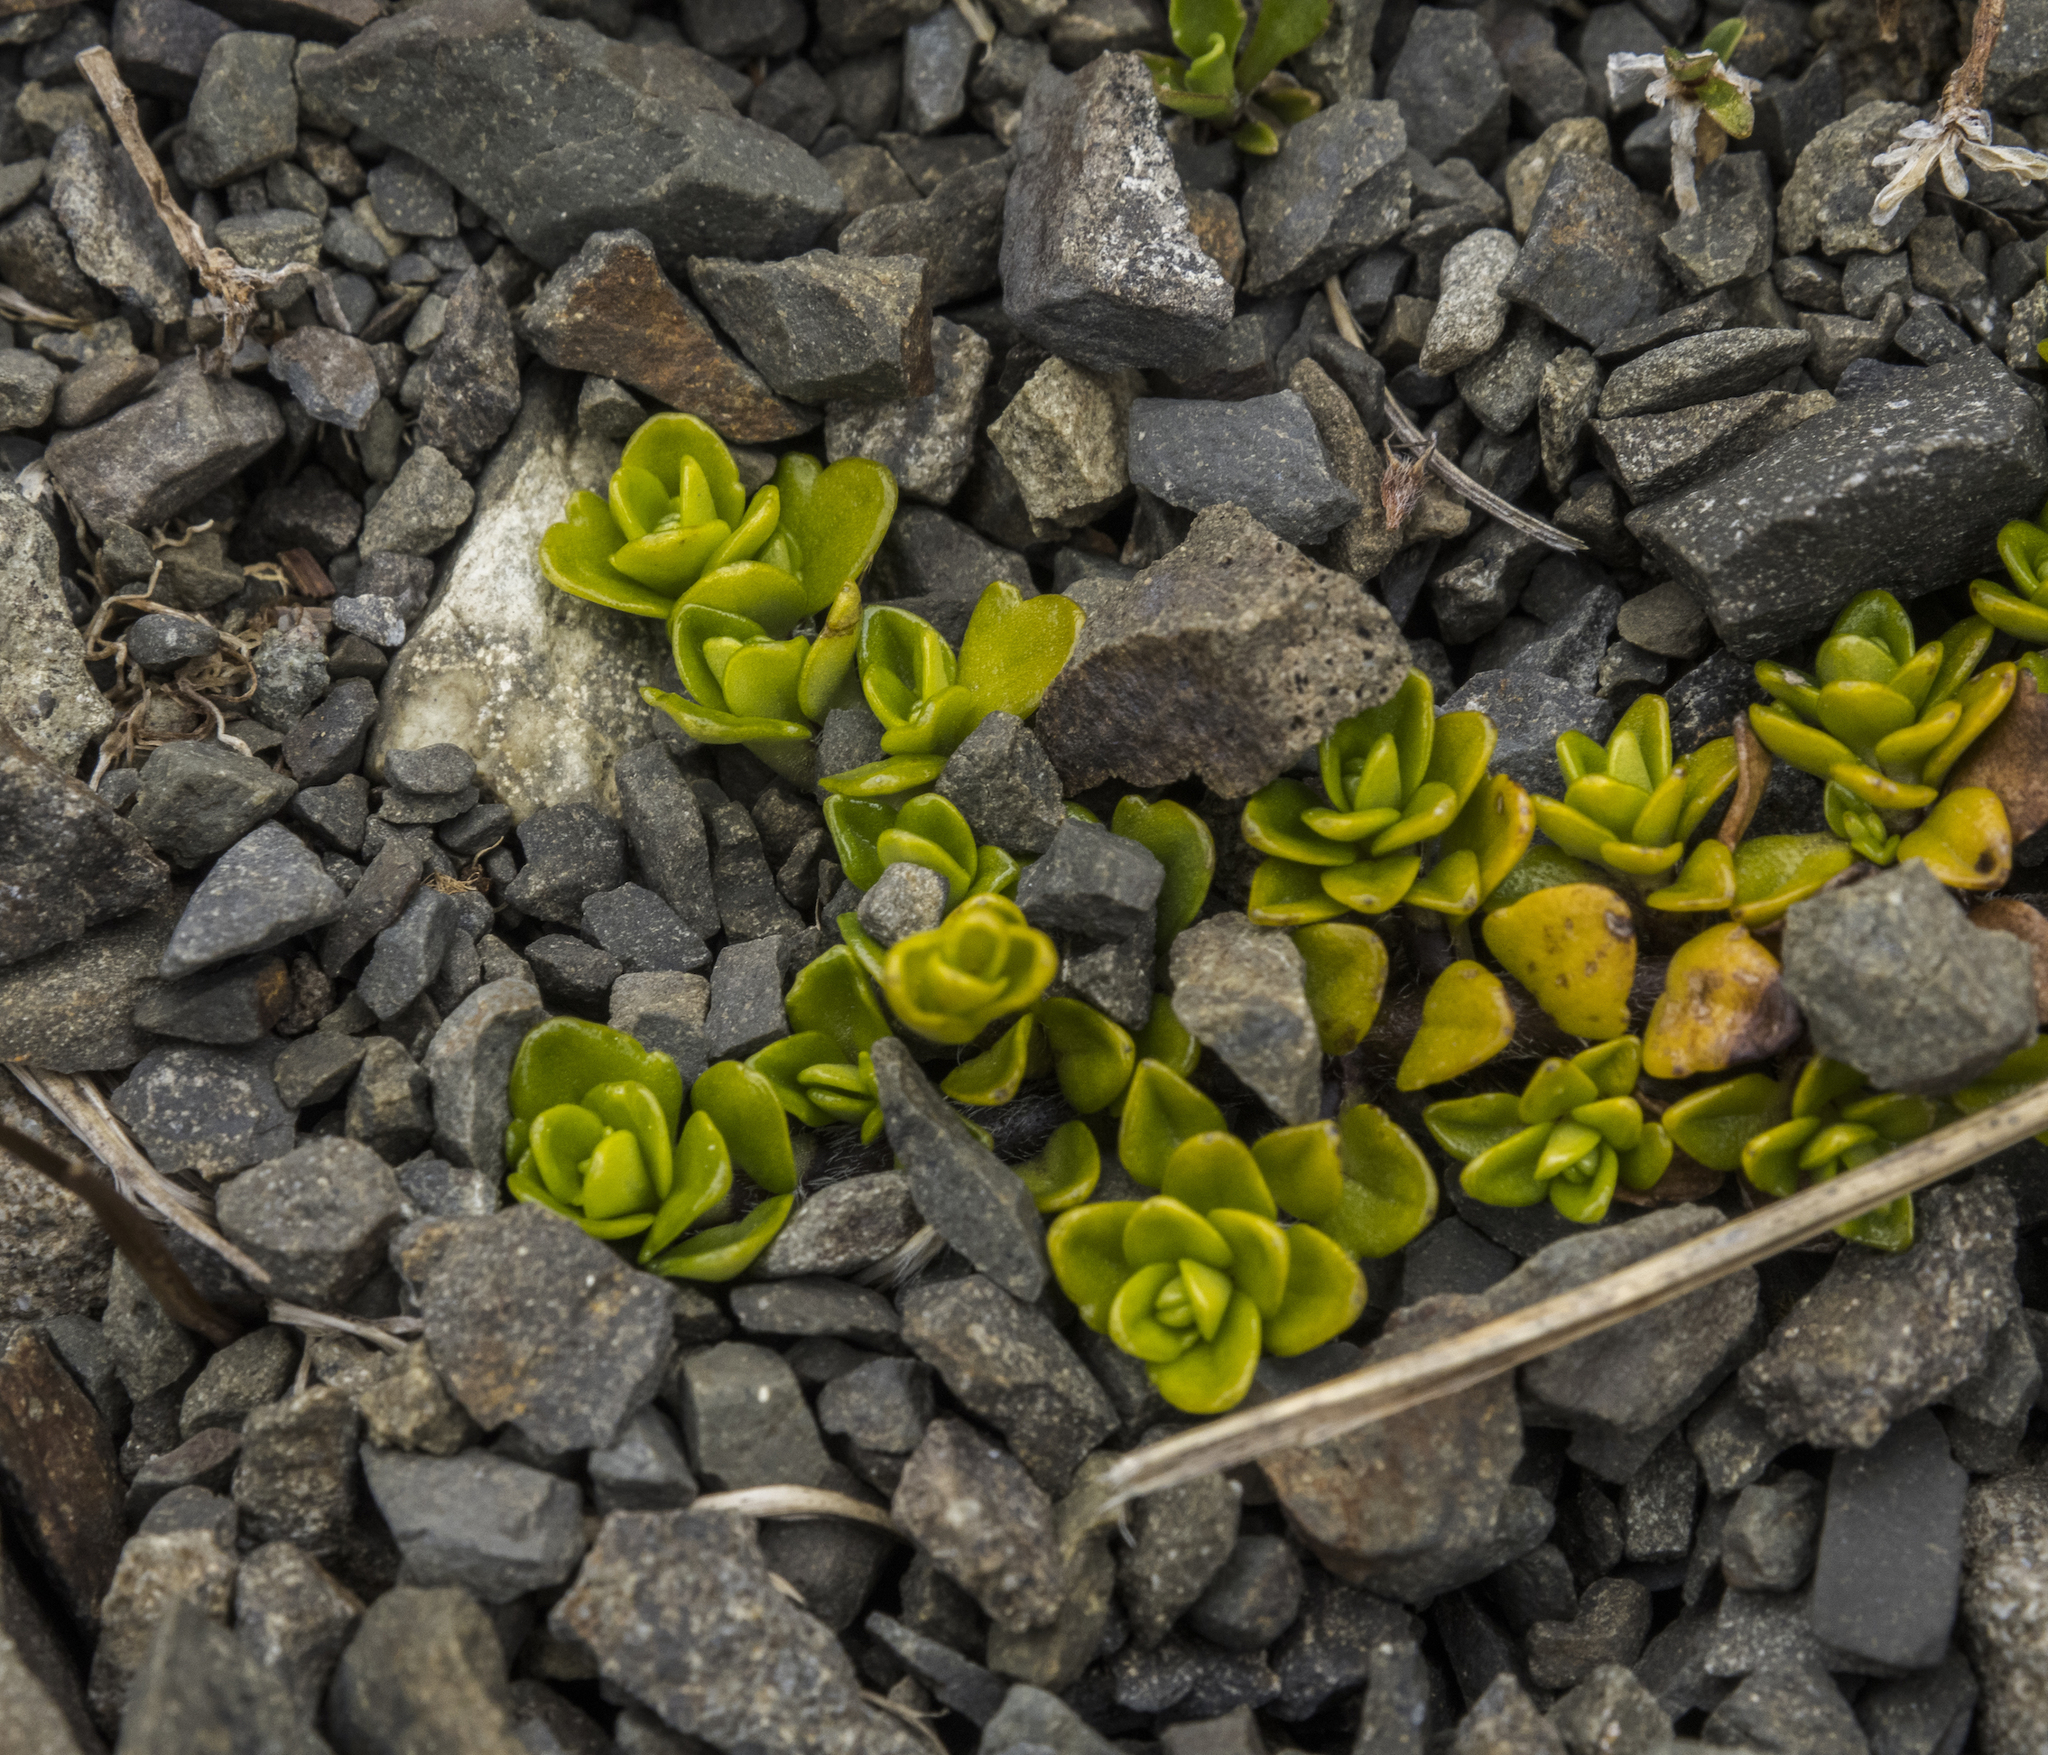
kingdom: Plantae
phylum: Tracheophyta
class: Magnoliopsida
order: Lamiales
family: Plantaginaceae
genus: Ourisia
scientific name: Ourisia caespitosa
